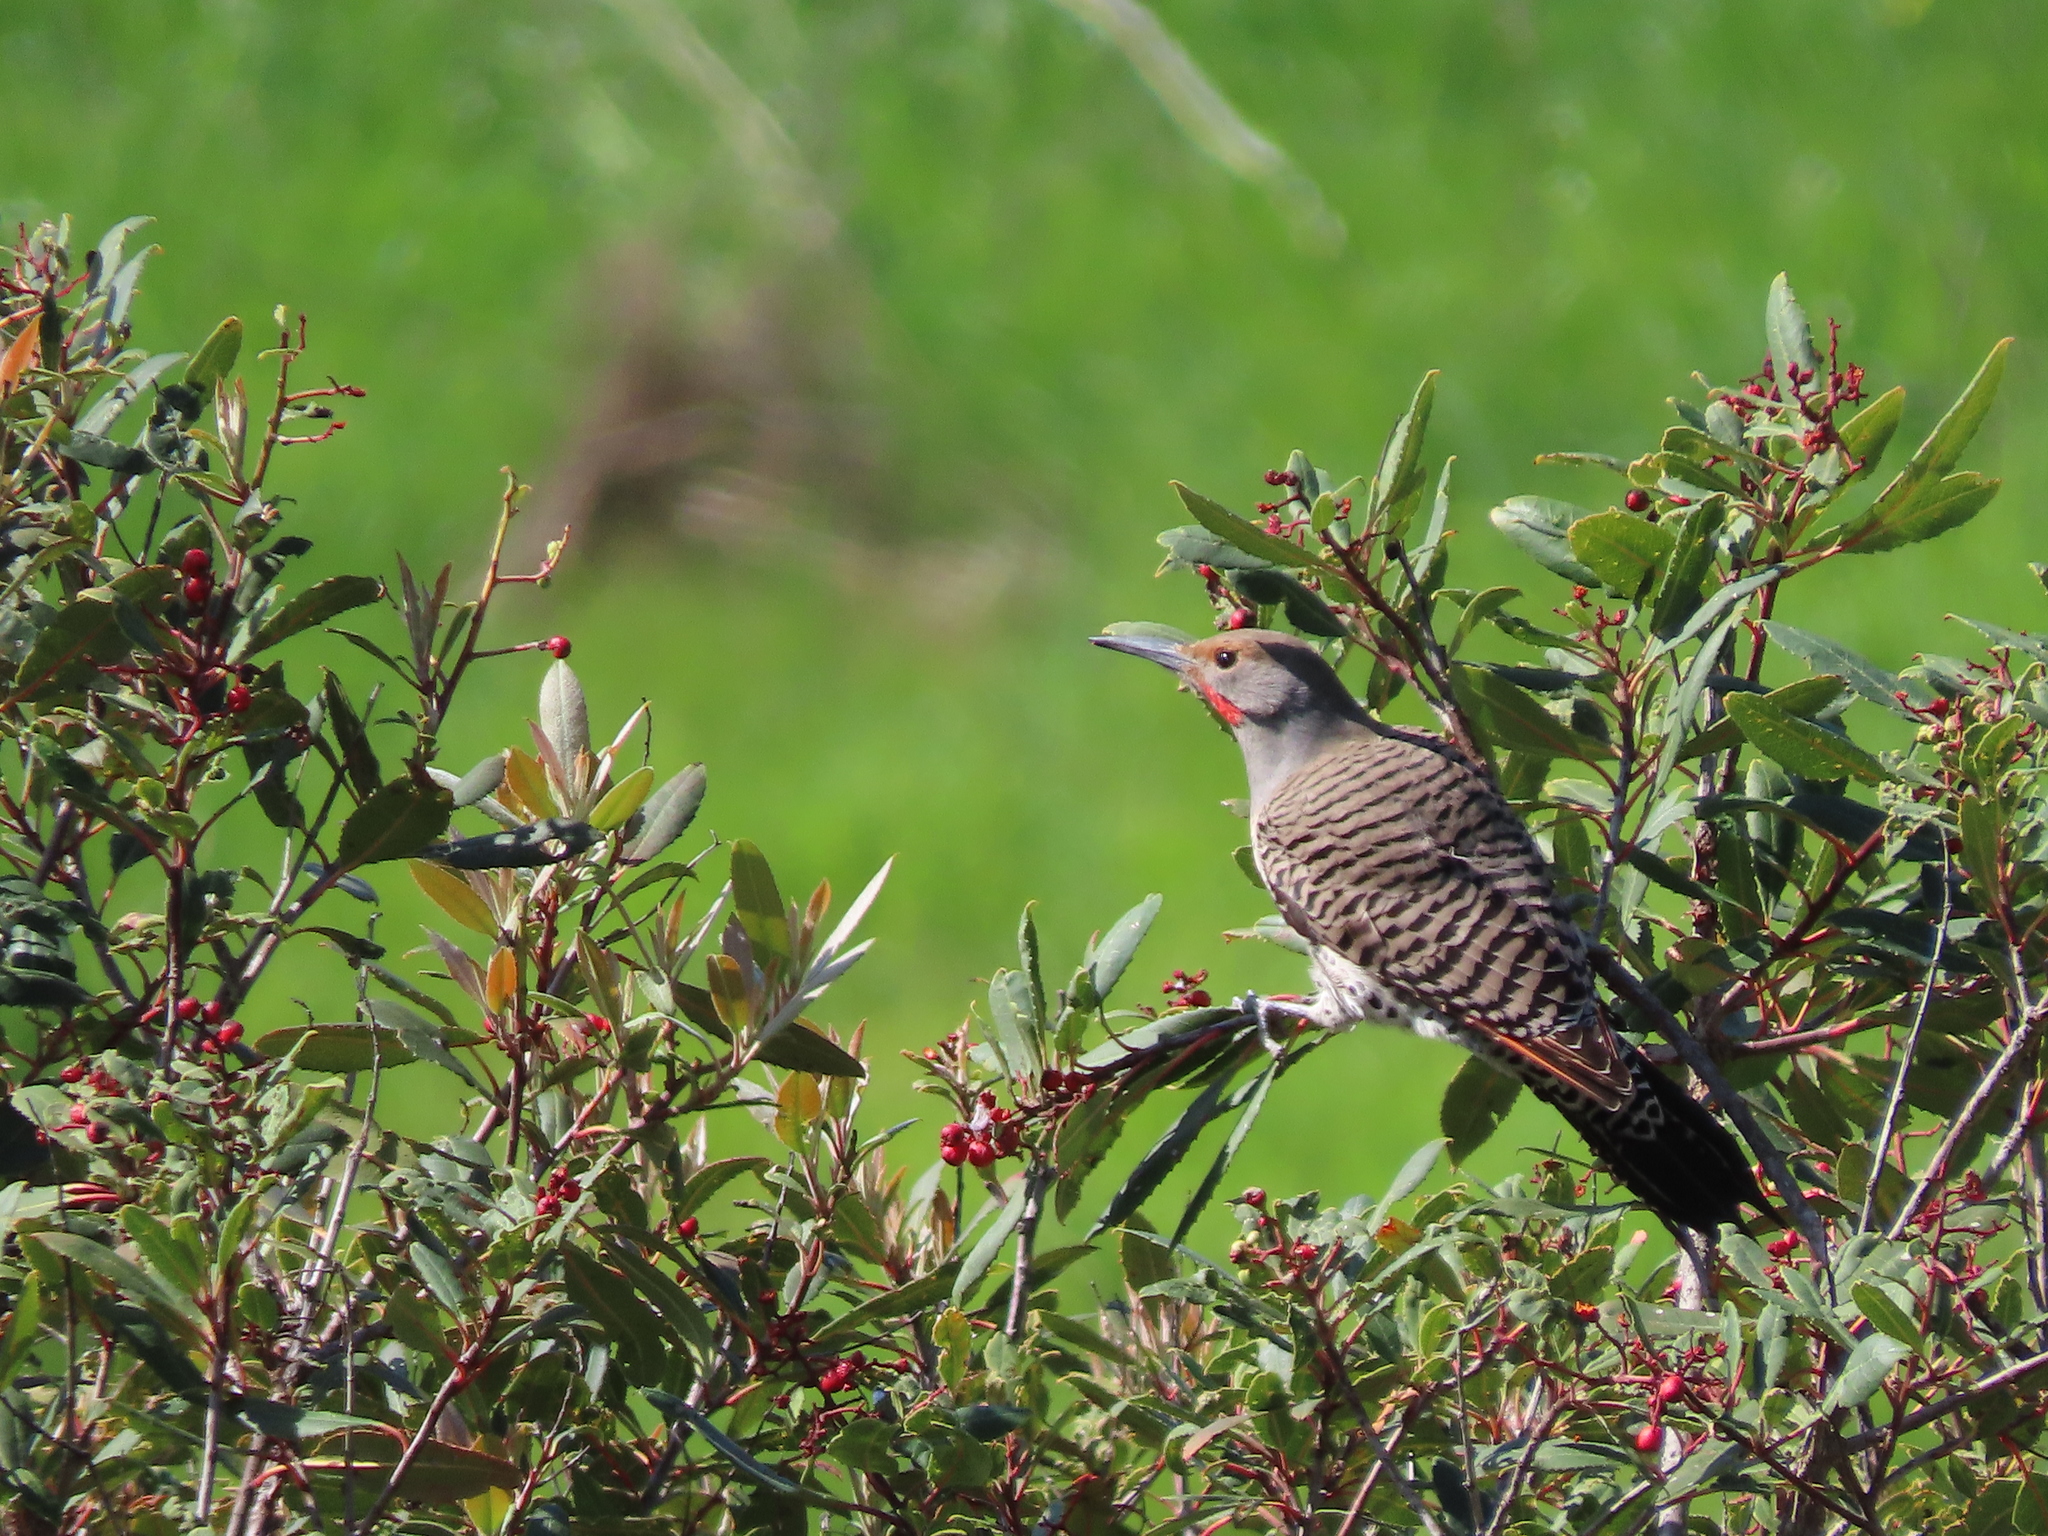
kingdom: Animalia
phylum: Chordata
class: Aves
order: Piciformes
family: Picidae
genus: Colaptes
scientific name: Colaptes auratus
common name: Northern flicker
